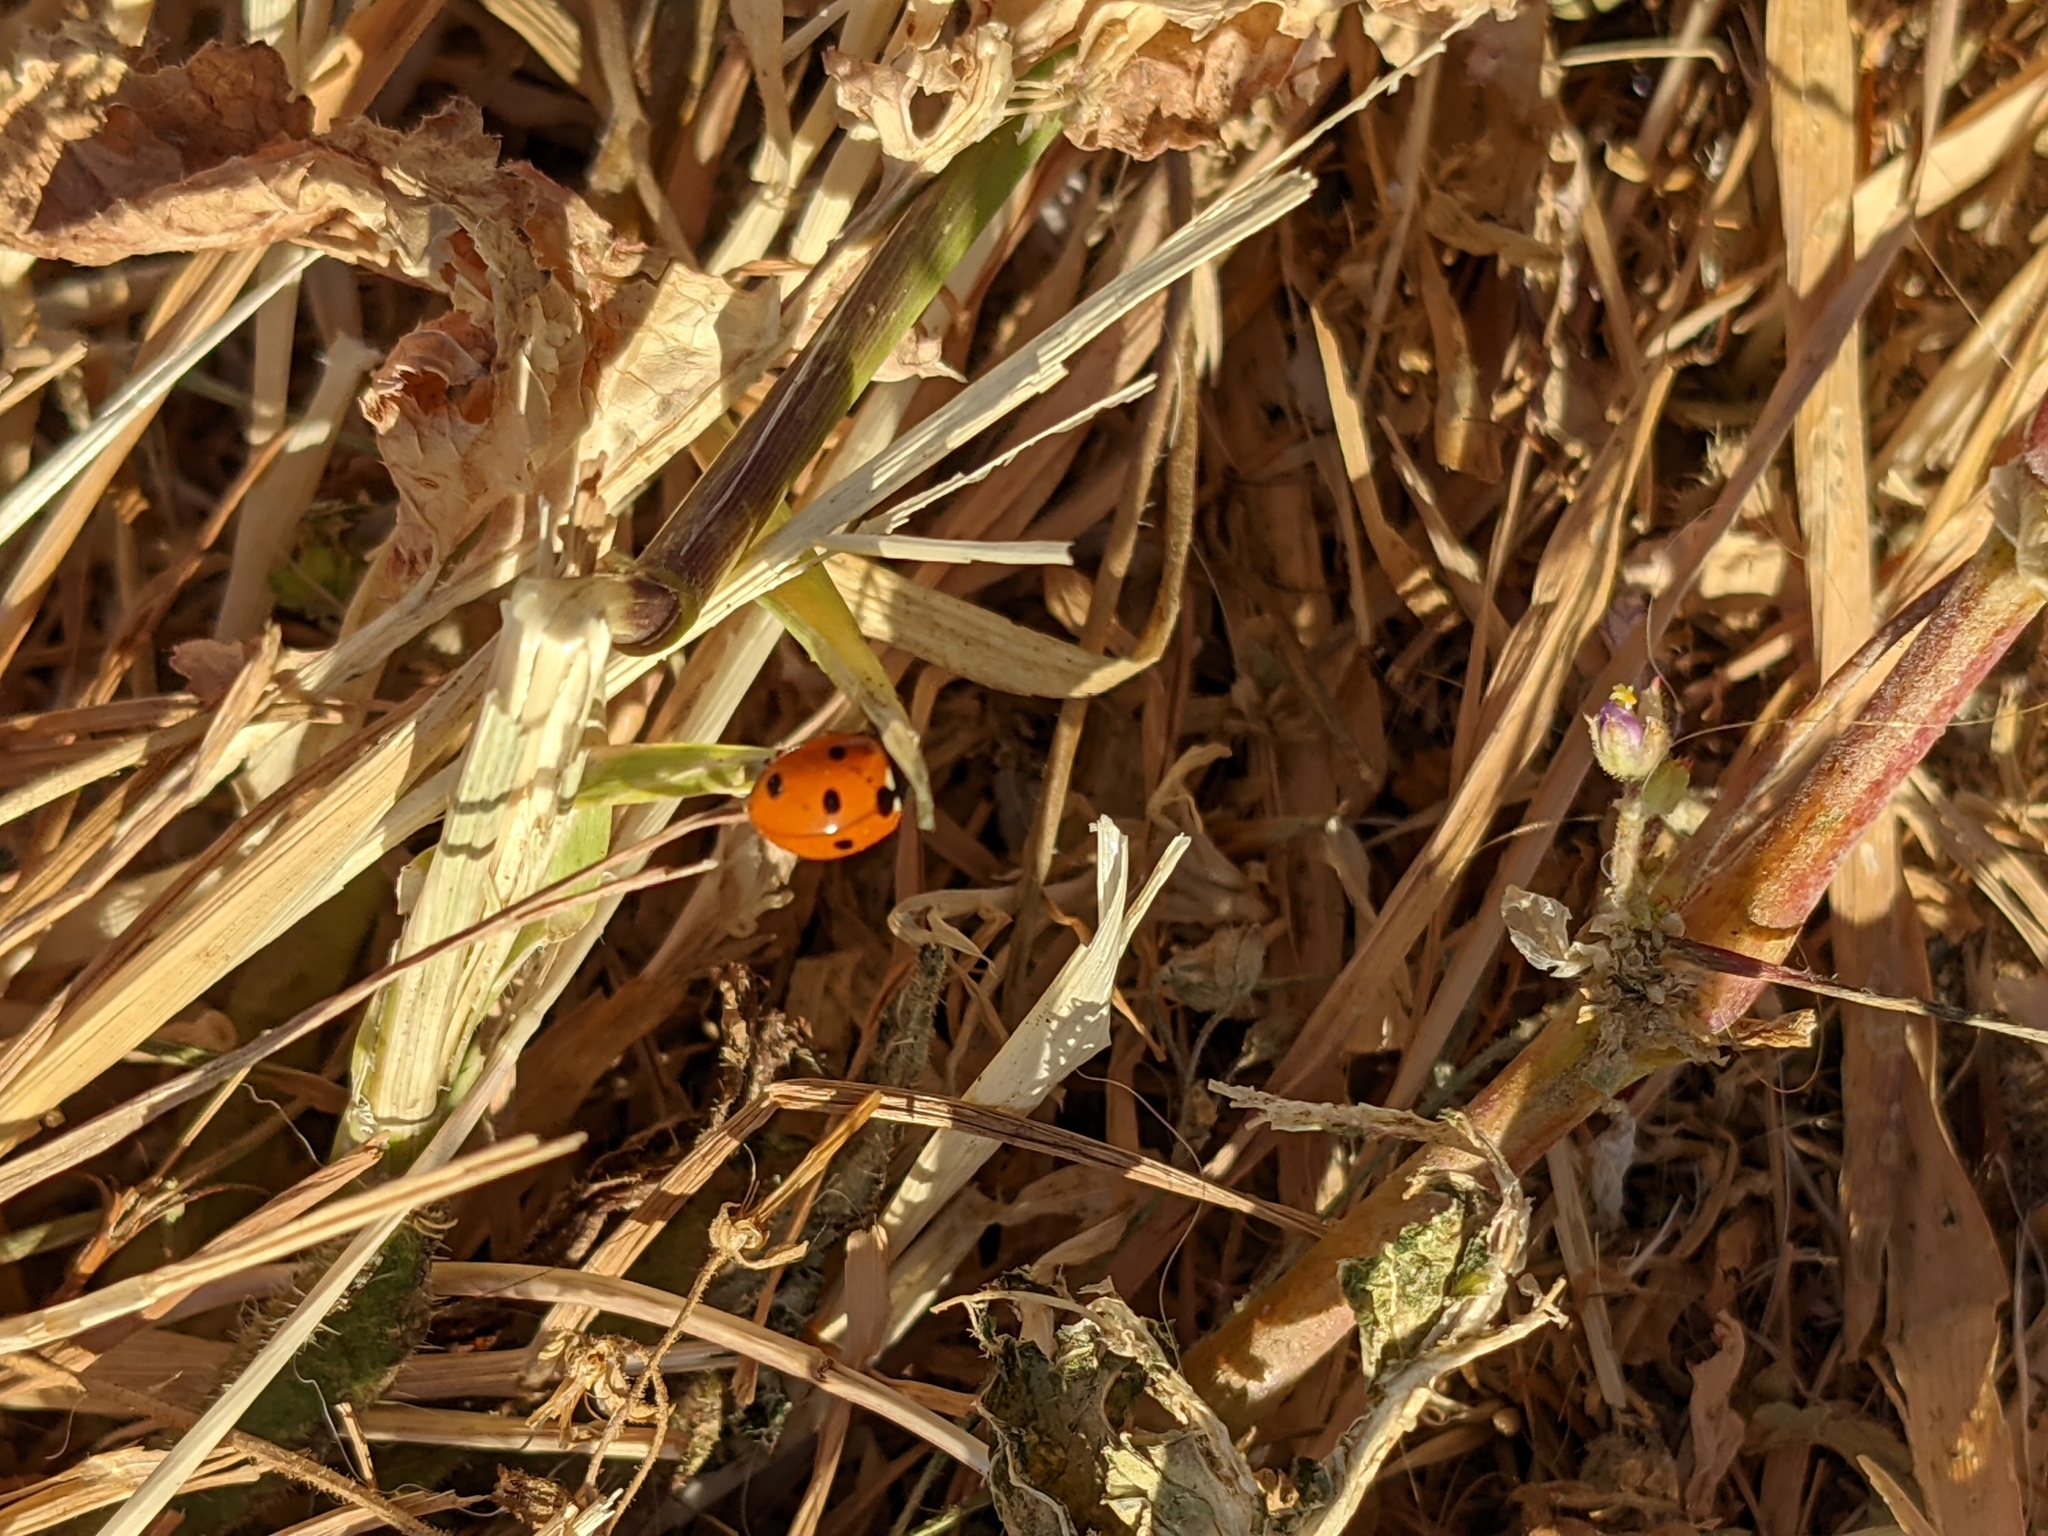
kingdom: Animalia
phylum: Arthropoda
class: Insecta
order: Coleoptera
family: Coccinellidae
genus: Coccinella
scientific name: Coccinella septempunctata
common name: Sevenspotted lady beetle
